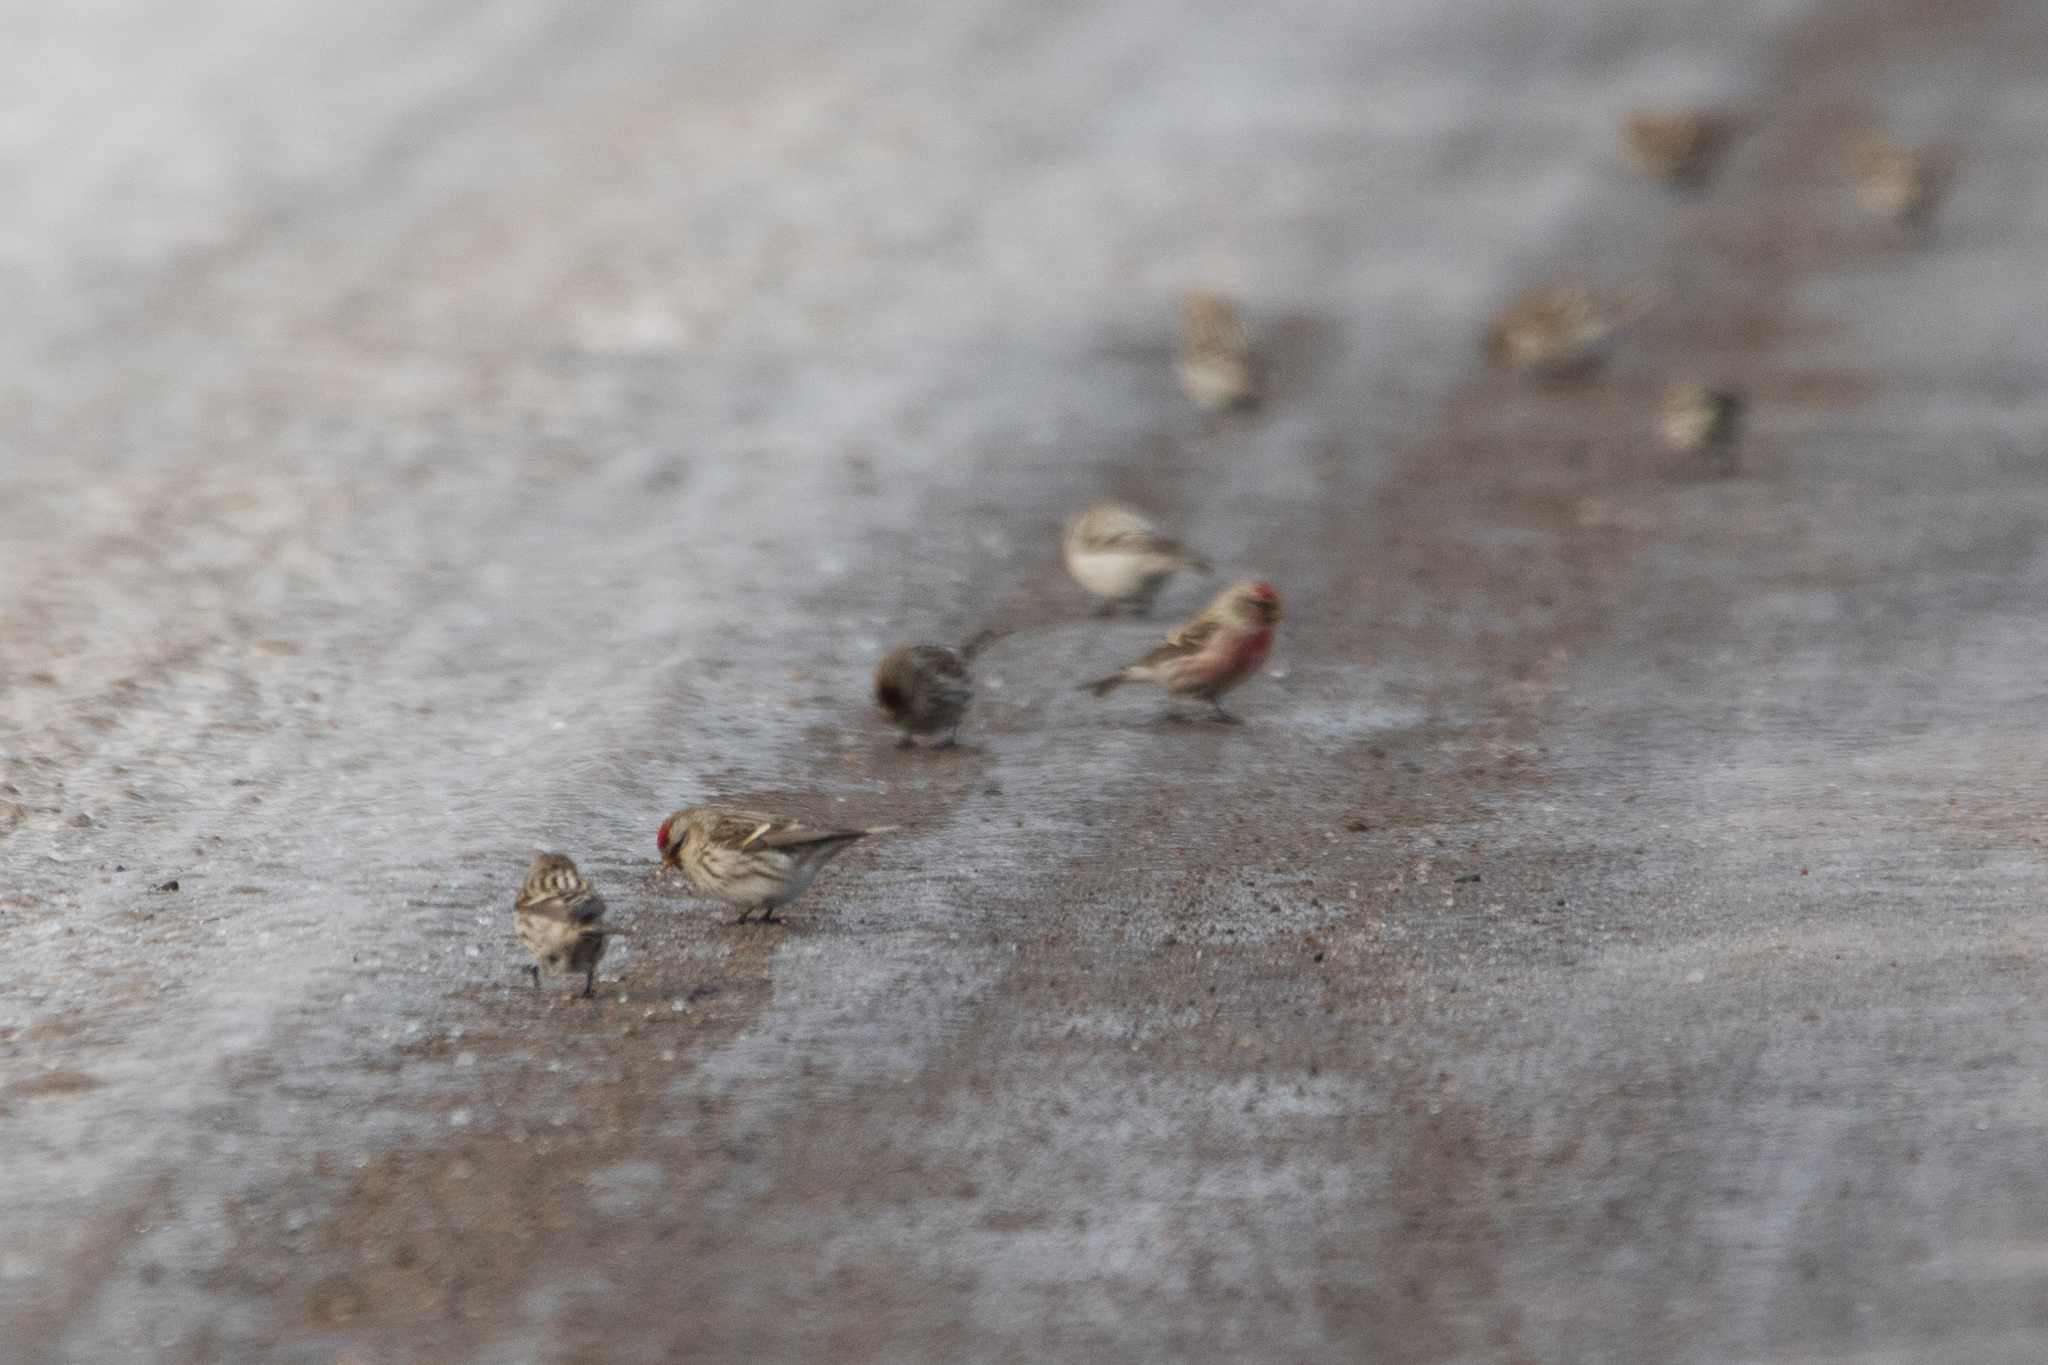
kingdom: Animalia
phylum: Chordata
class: Aves
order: Passeriformes
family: Fringillidae
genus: Acanthis
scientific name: Acanthis flammea
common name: Common redpoll
